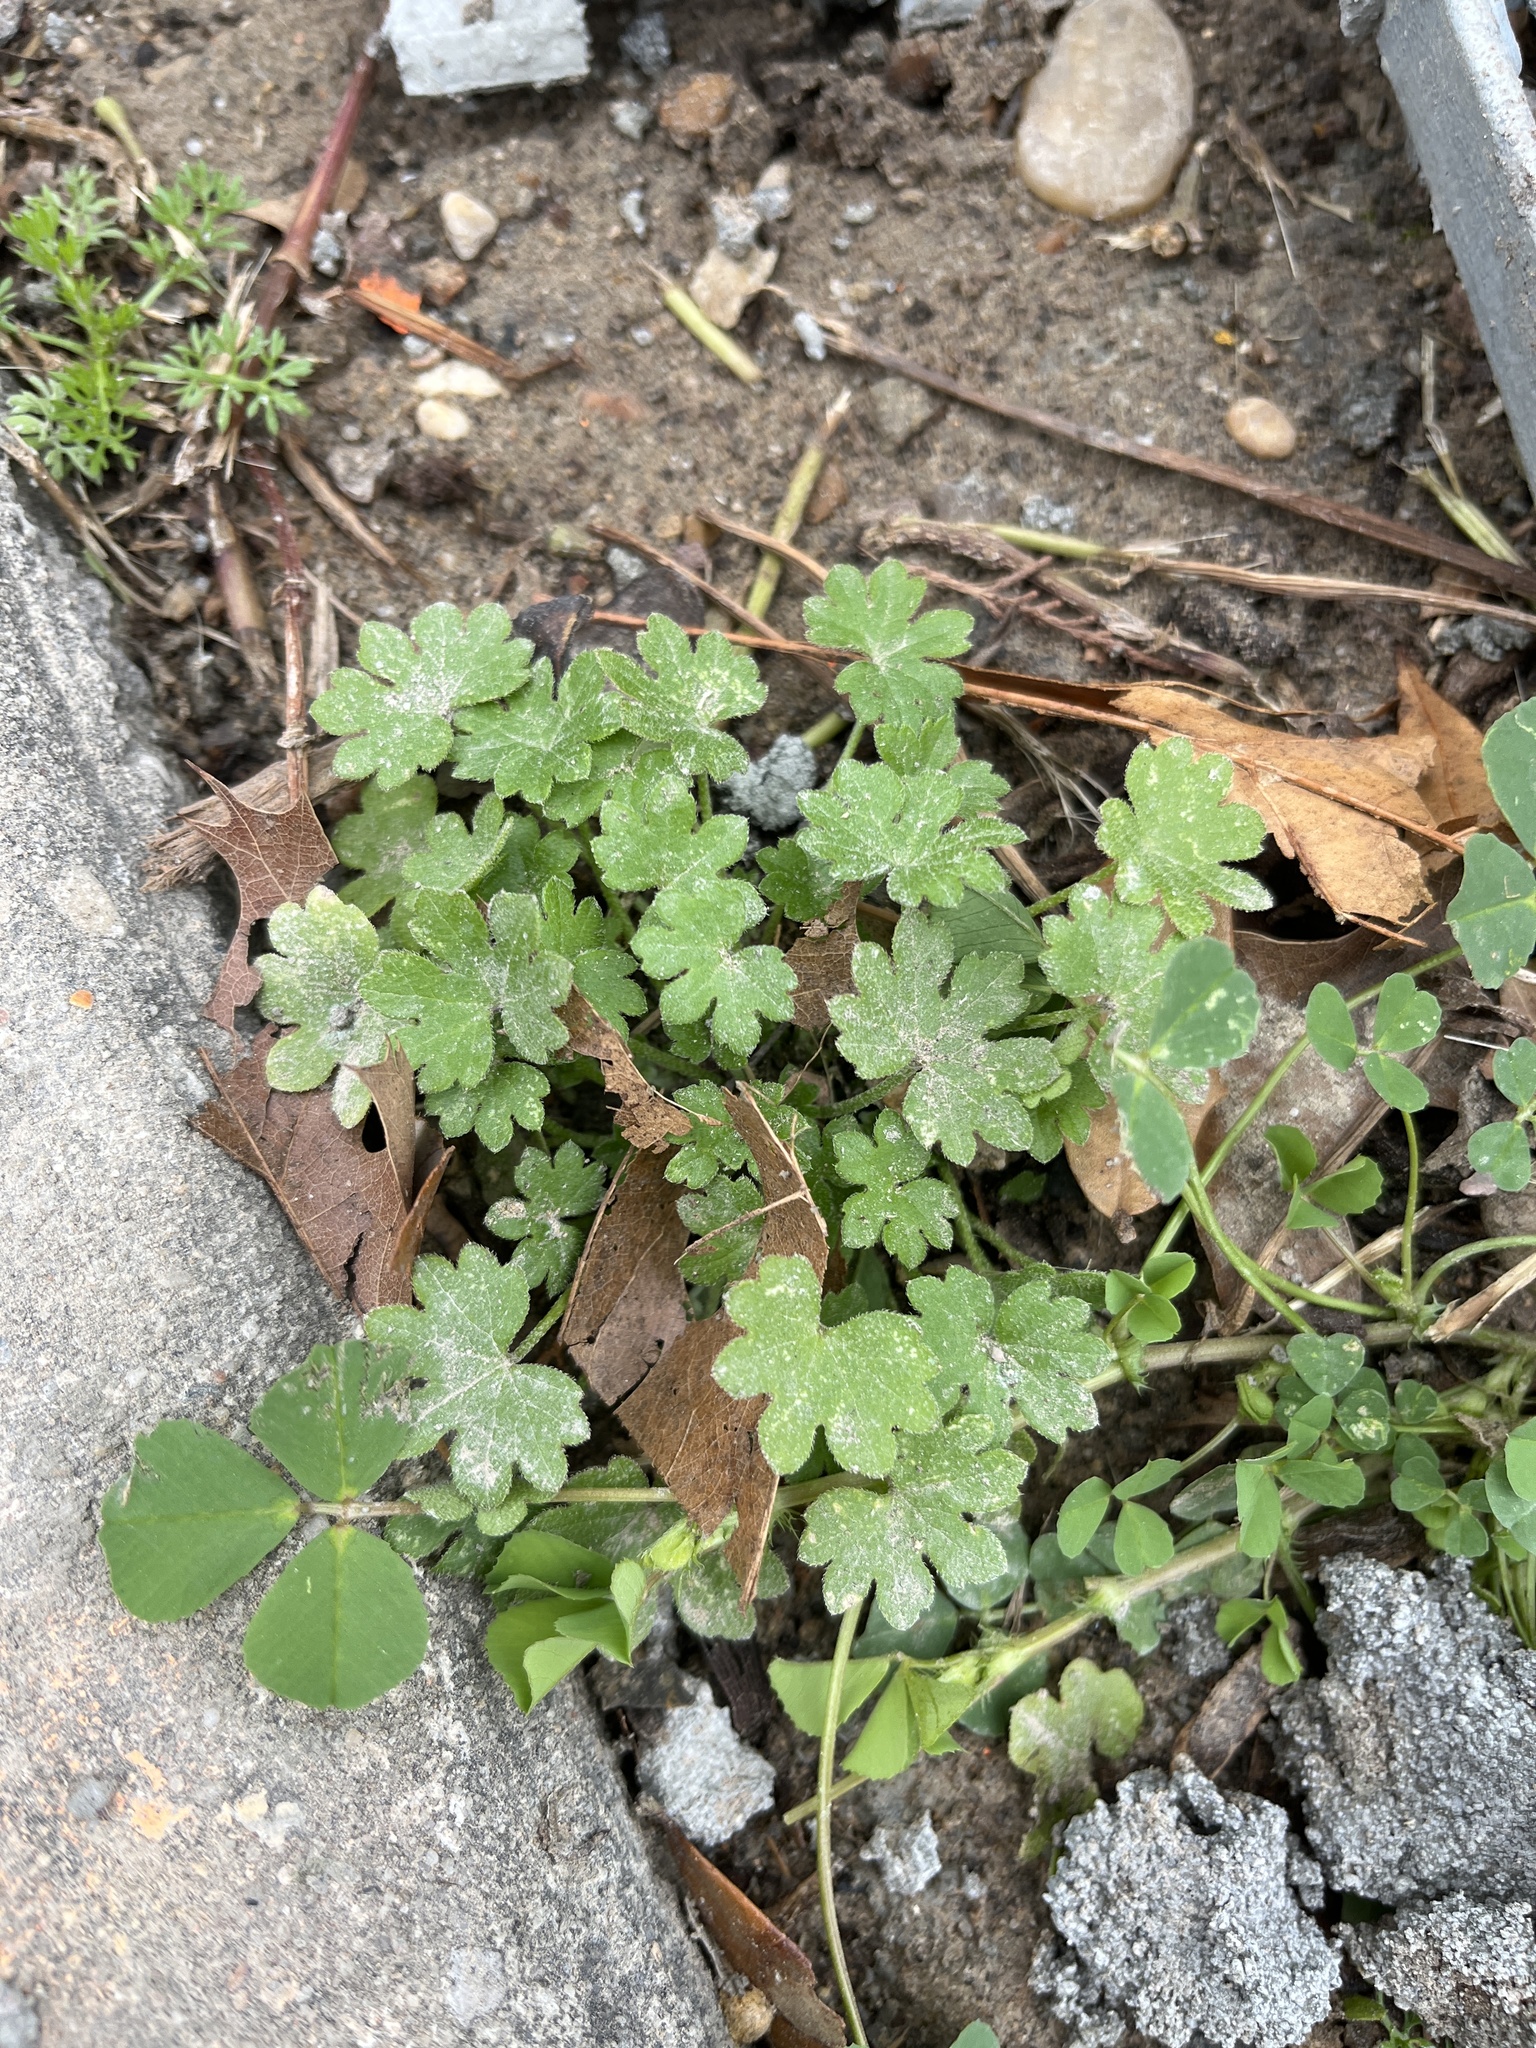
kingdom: Plantae
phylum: Tracheophyta
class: Magnoliopsida
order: Apiales
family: Apiaceae
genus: Bowlesia
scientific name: Bowlesia incana
